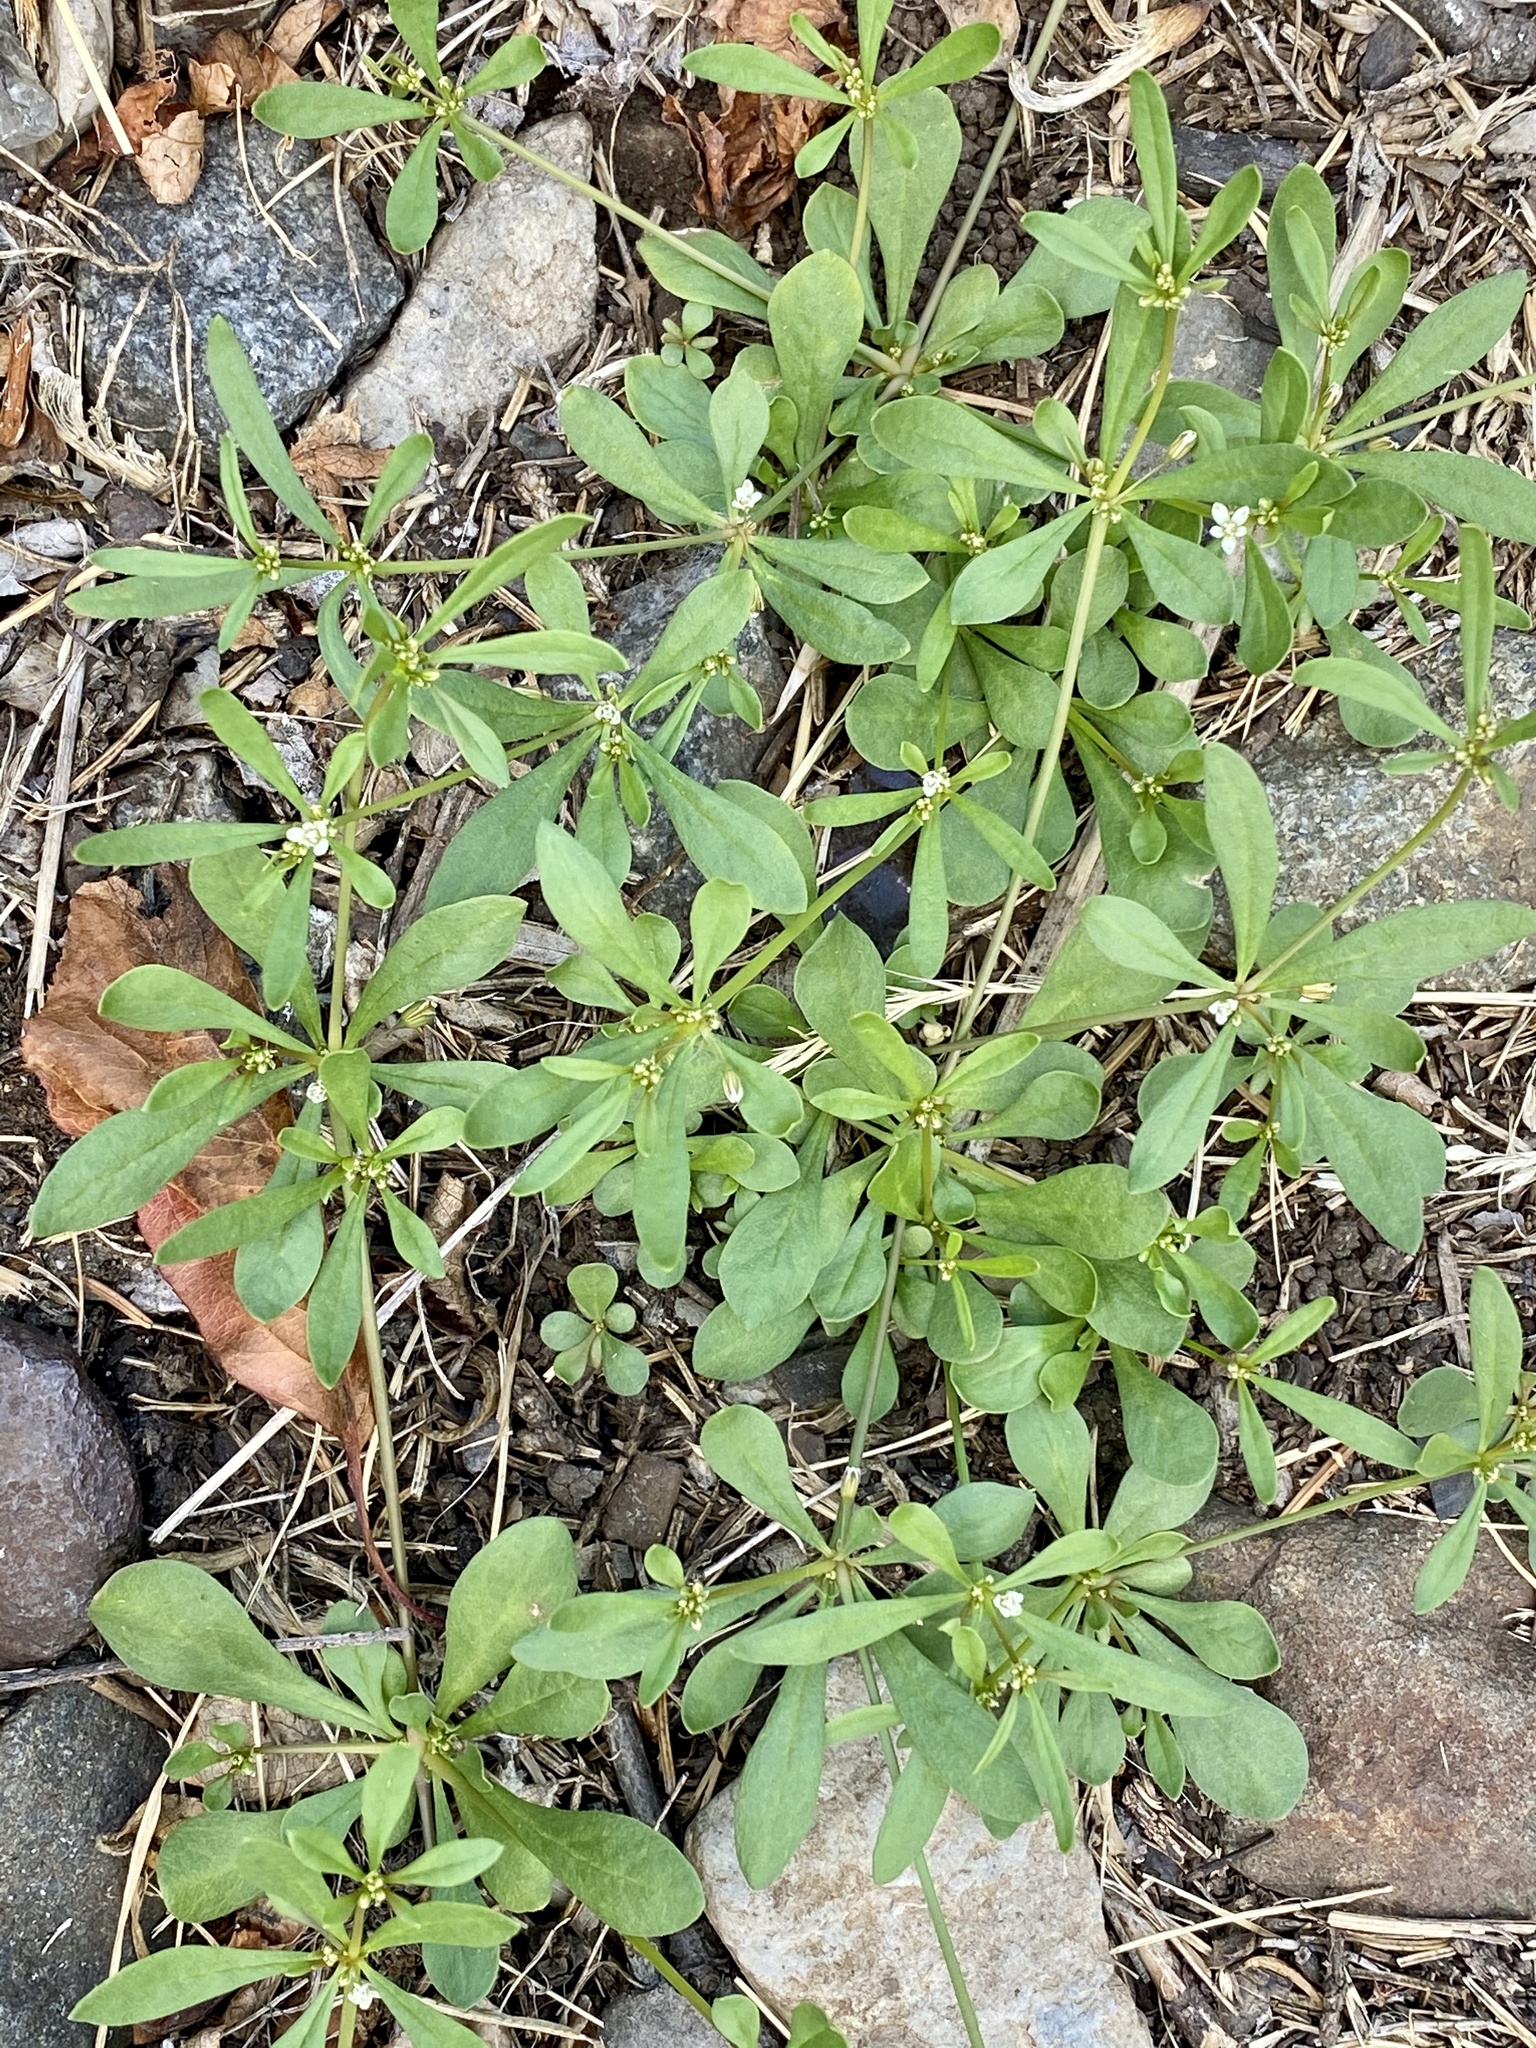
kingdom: Plantae
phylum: Tracheophyta
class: Magnoliopsida
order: Caryophyllales
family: Molluginaceae
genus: Mollugo
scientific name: Mollugo verticillata
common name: Green carpetweed
